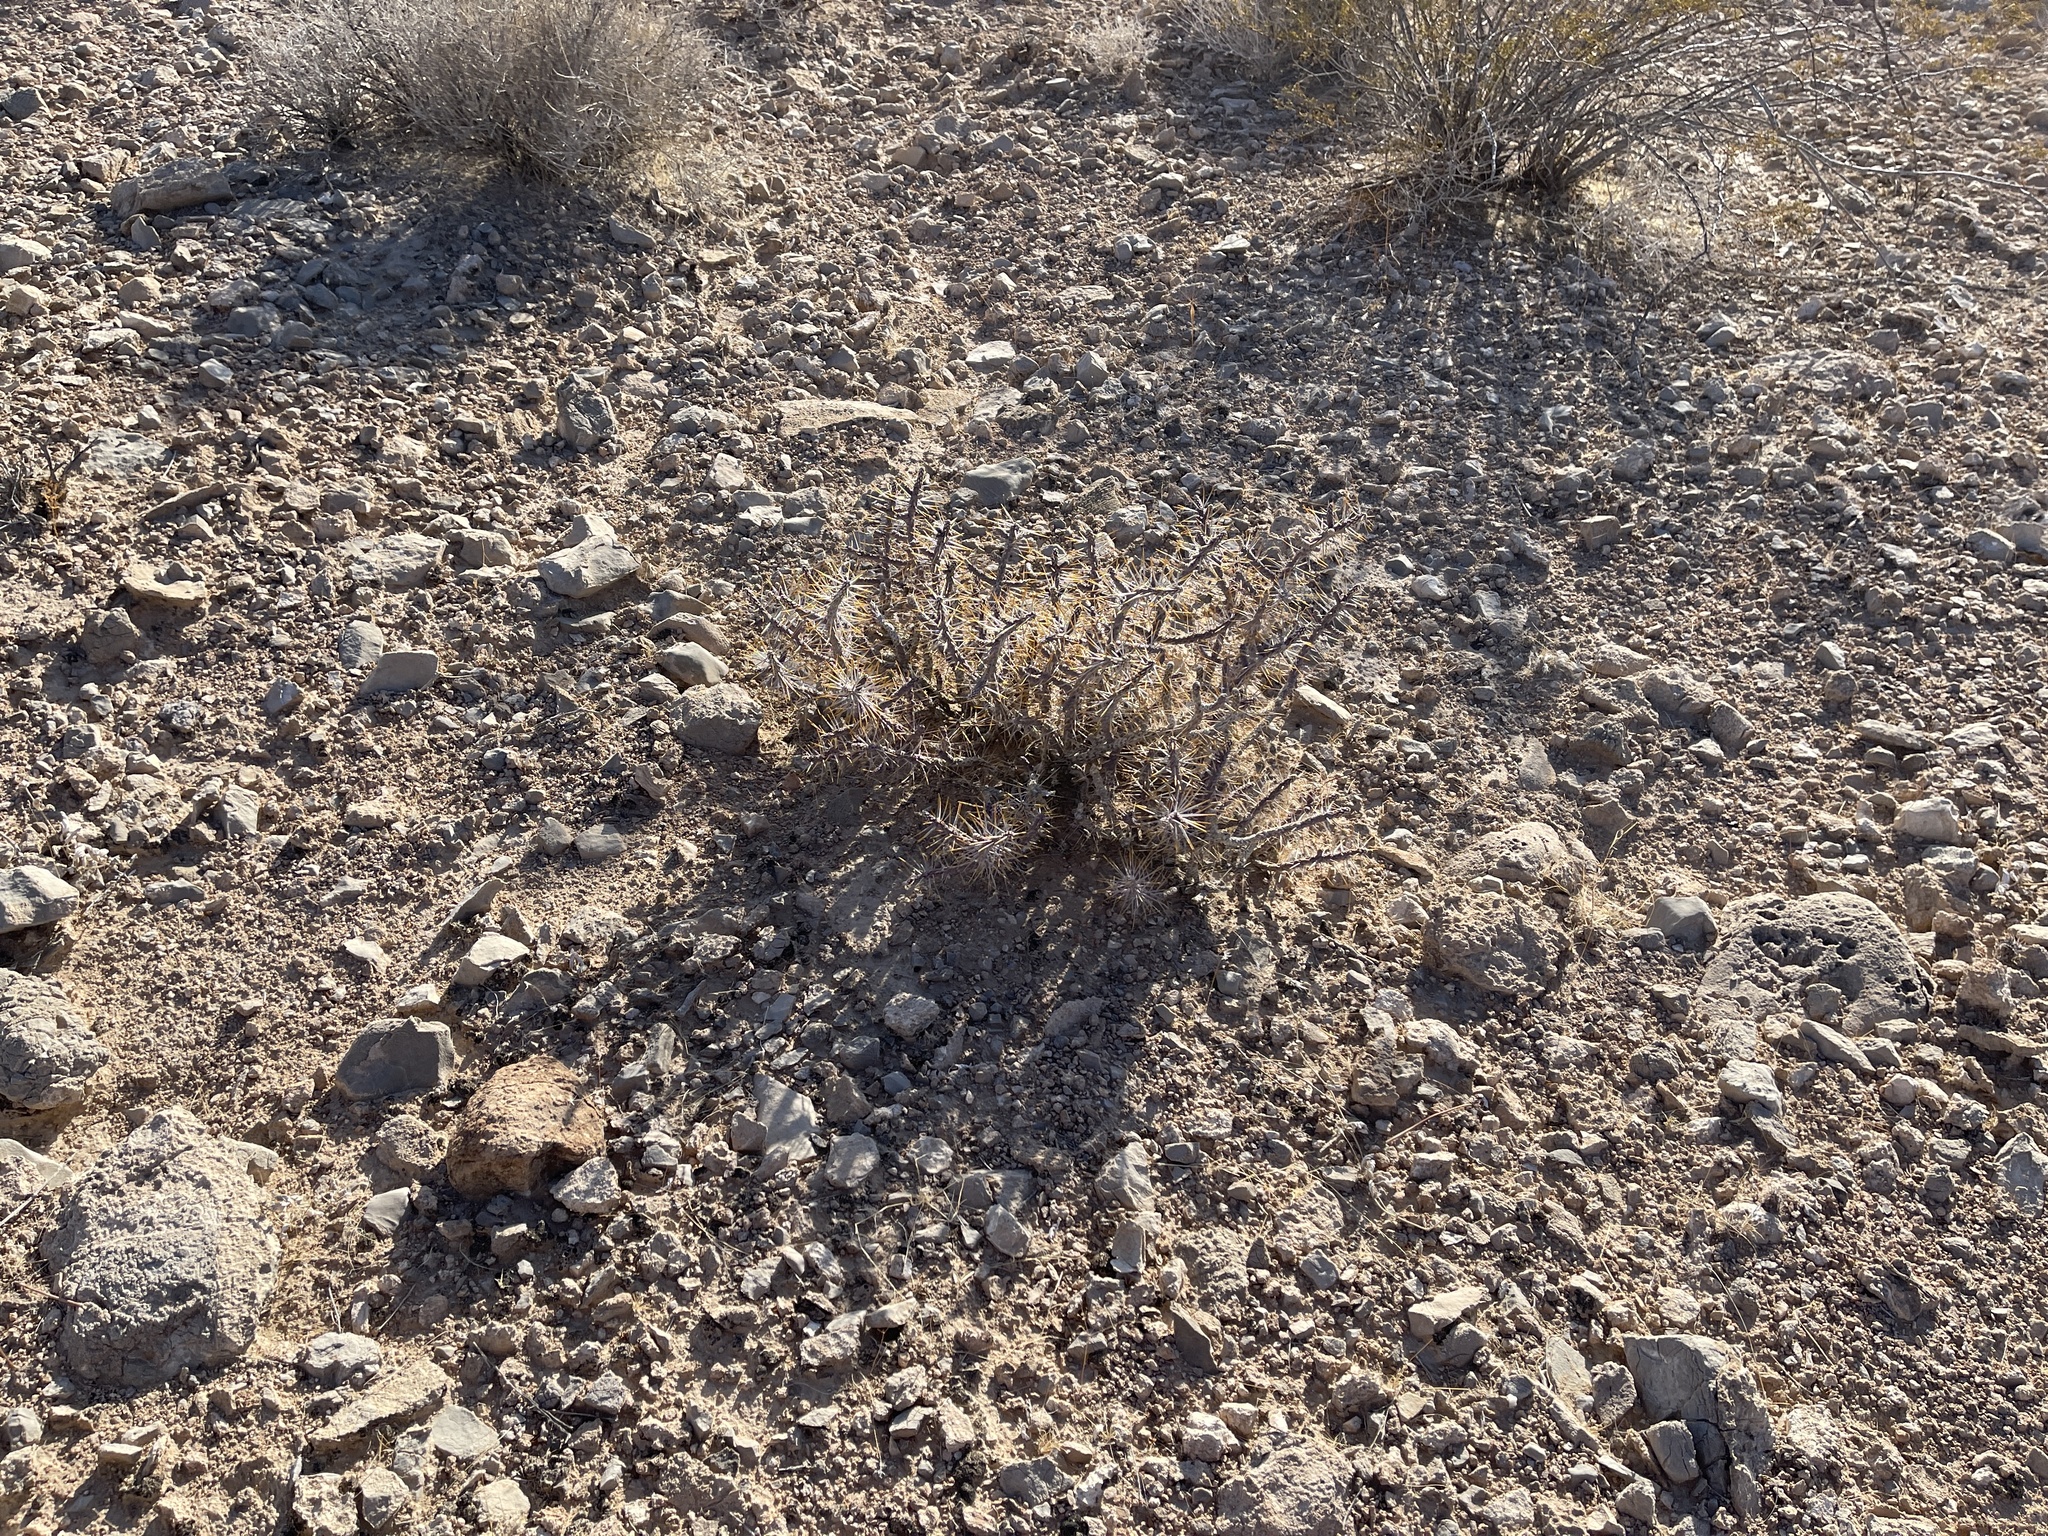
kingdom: Plantae
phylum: Tracheophyta
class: Magnoliopsida
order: Caryophyllales
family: Cactaceae
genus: Cylindropuntia
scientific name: Cylindropuntia ramosissima
